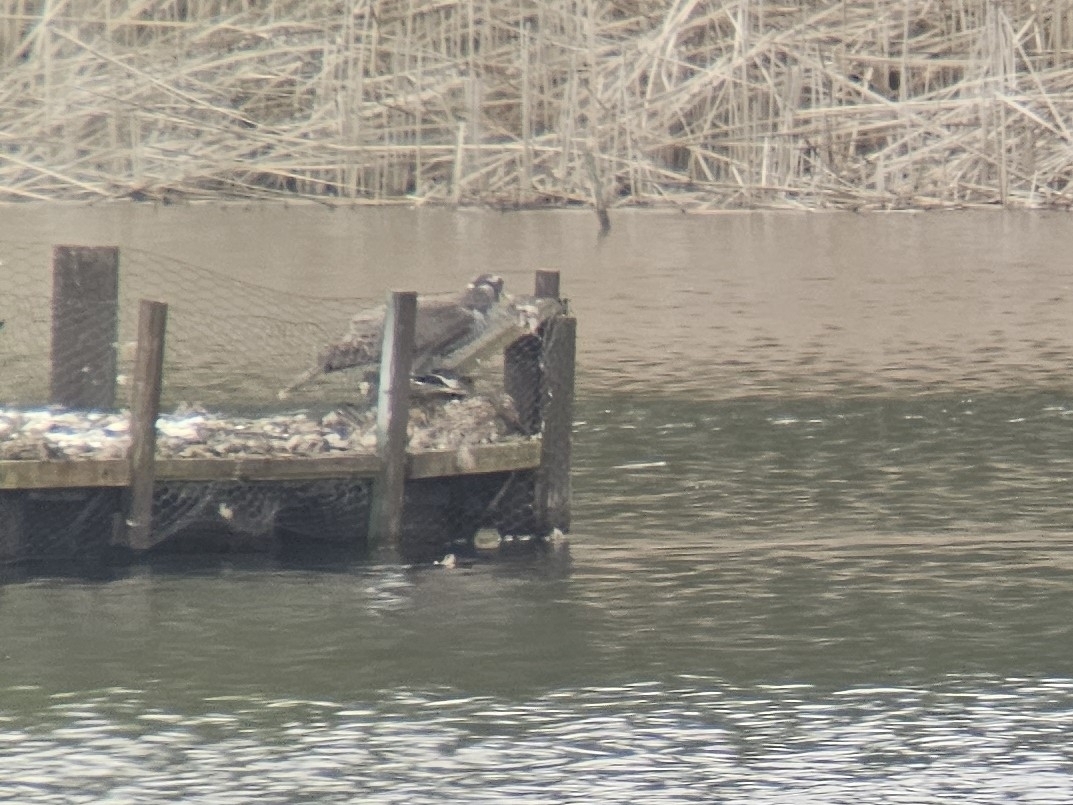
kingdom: Animalia
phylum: Chordata
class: Aves
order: Anseriformes
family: Anatidae
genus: Anas
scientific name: Anas platyrhynchos
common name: Mallard
